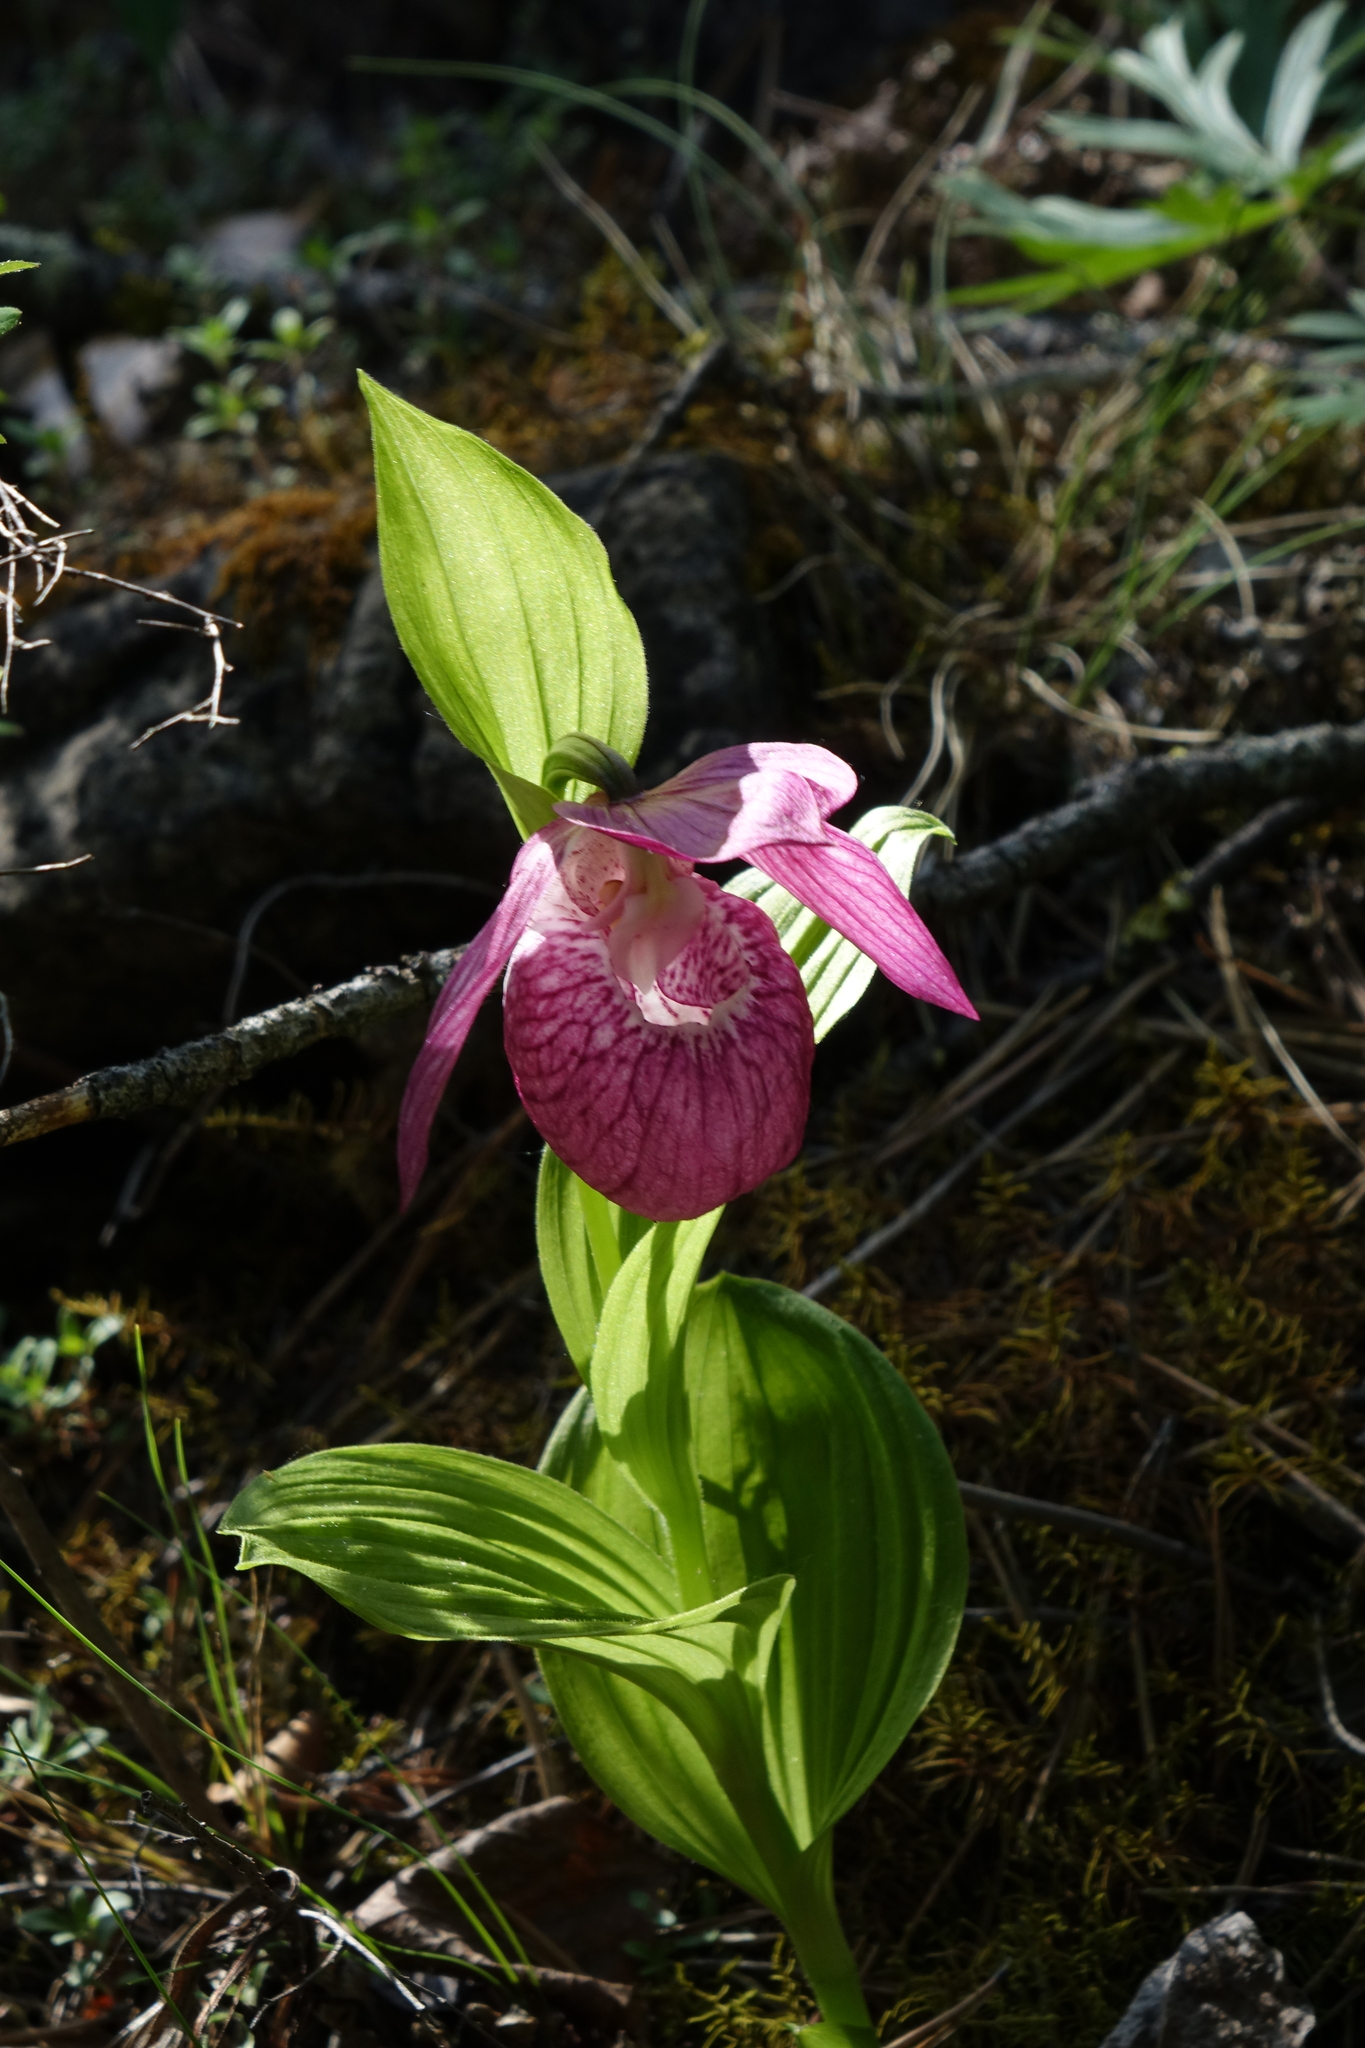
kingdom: Plantae
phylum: Tracheophyta
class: Liliopsida
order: Asparagales
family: Orchidaceae
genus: Cypripedium
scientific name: Cypripedium macranthos
